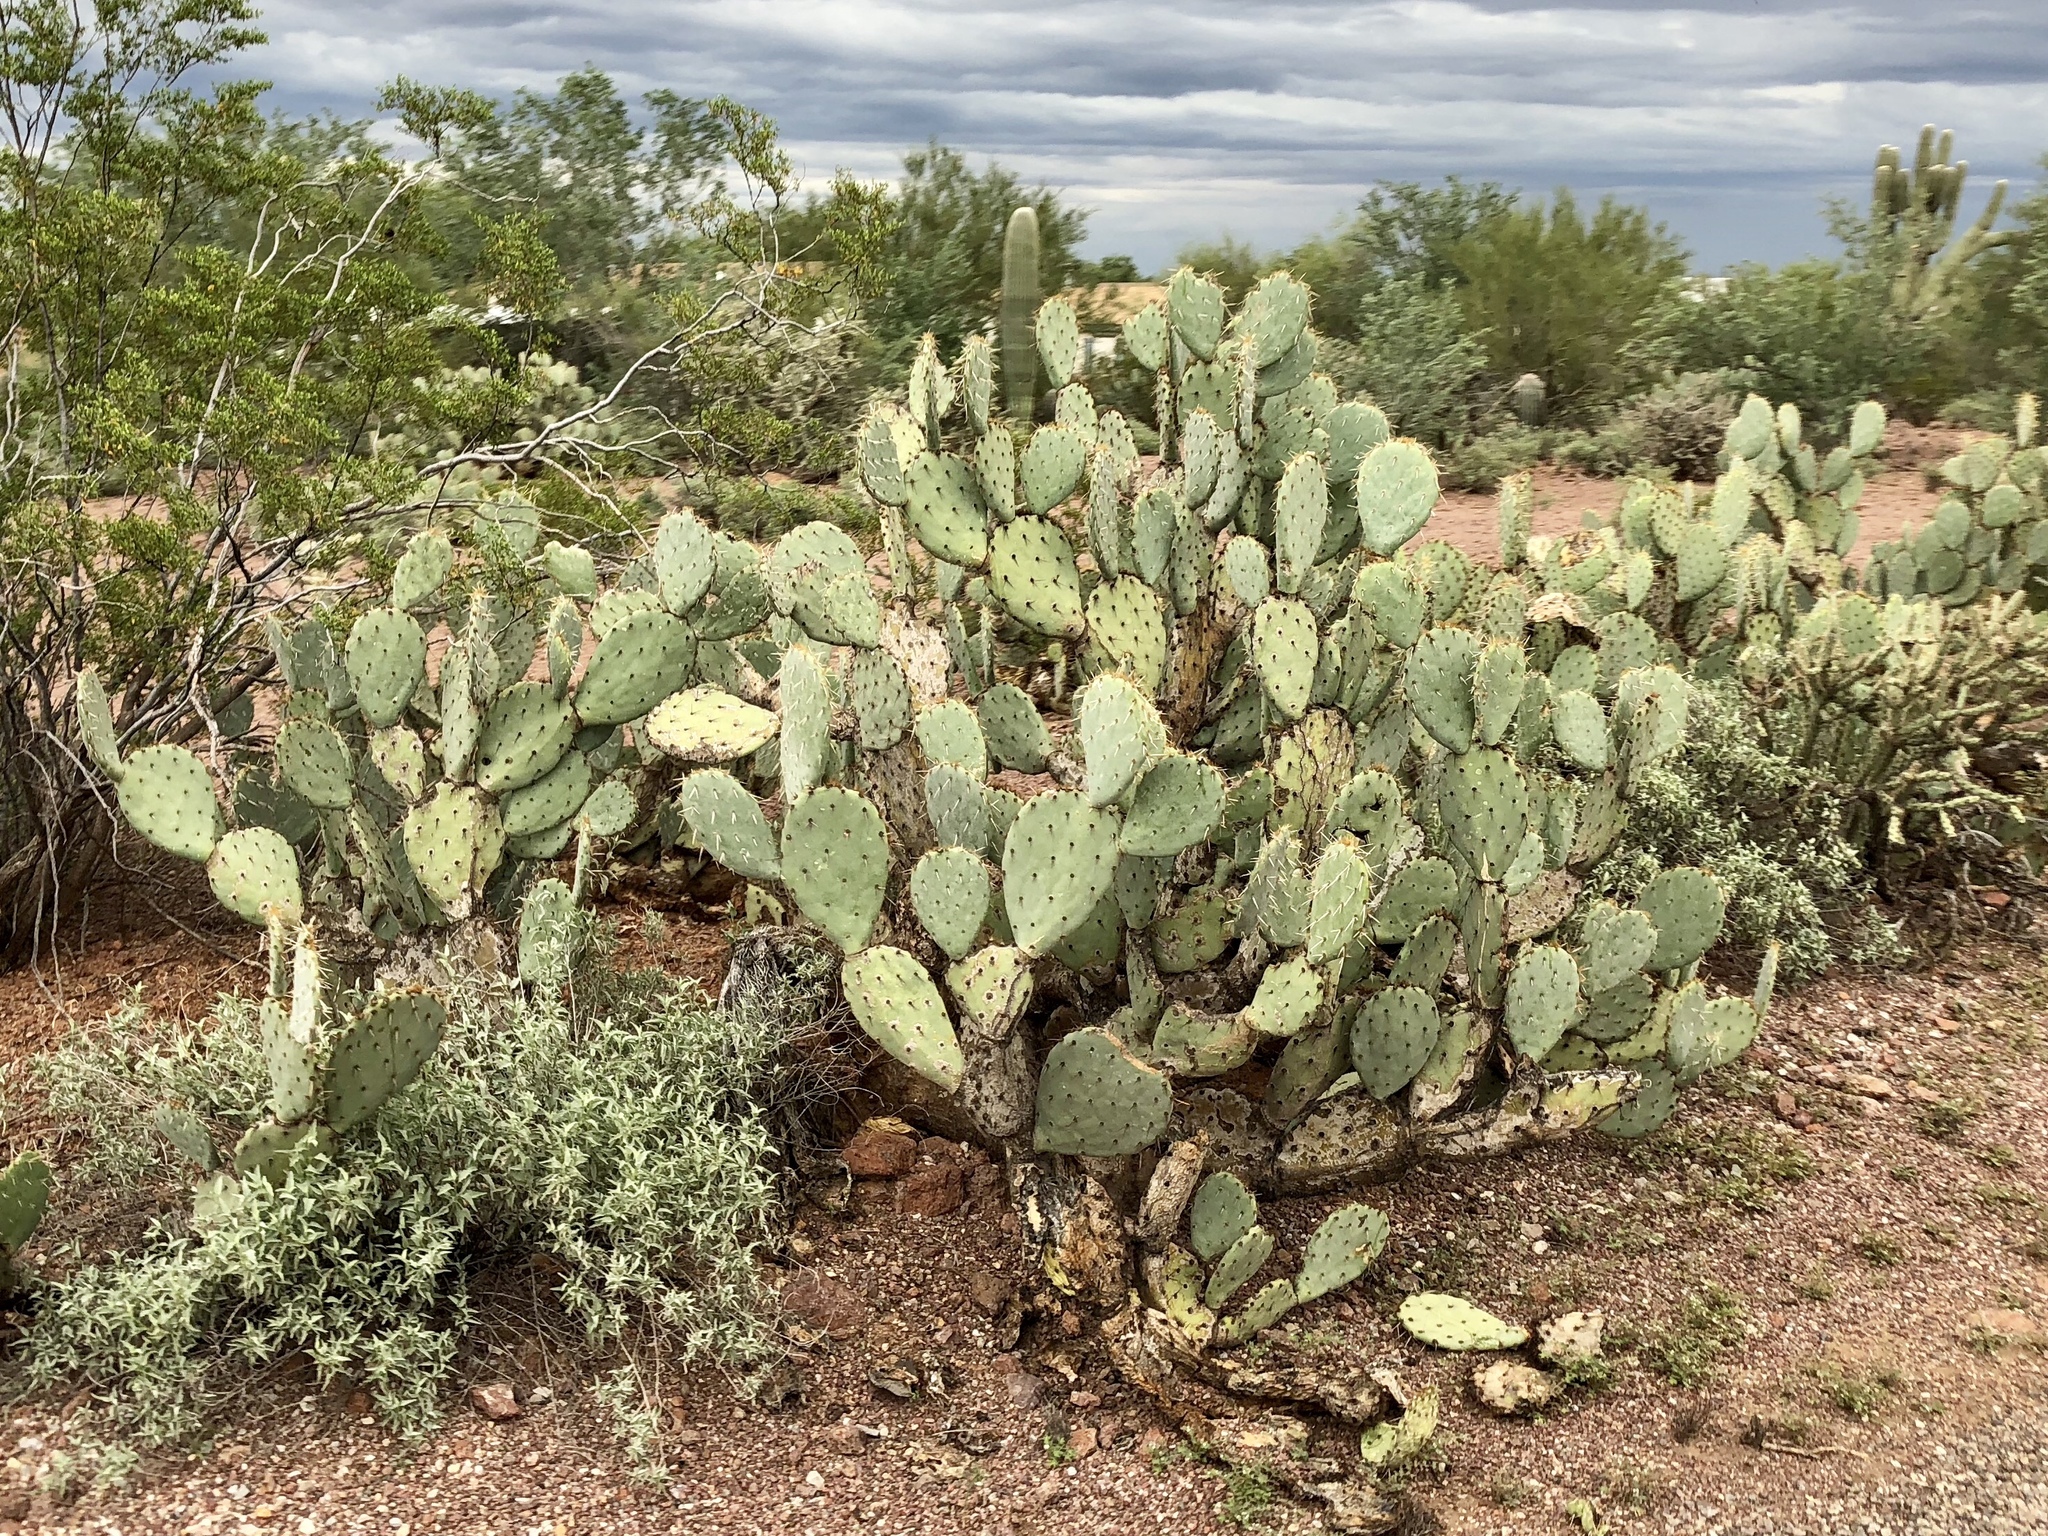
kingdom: Plantae
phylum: Tracheophyta
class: Magnoliopsida
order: Caryophyllales
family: Cactaceae
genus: Opuntia
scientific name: Opuntia engelmannii
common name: Cactus-apple
